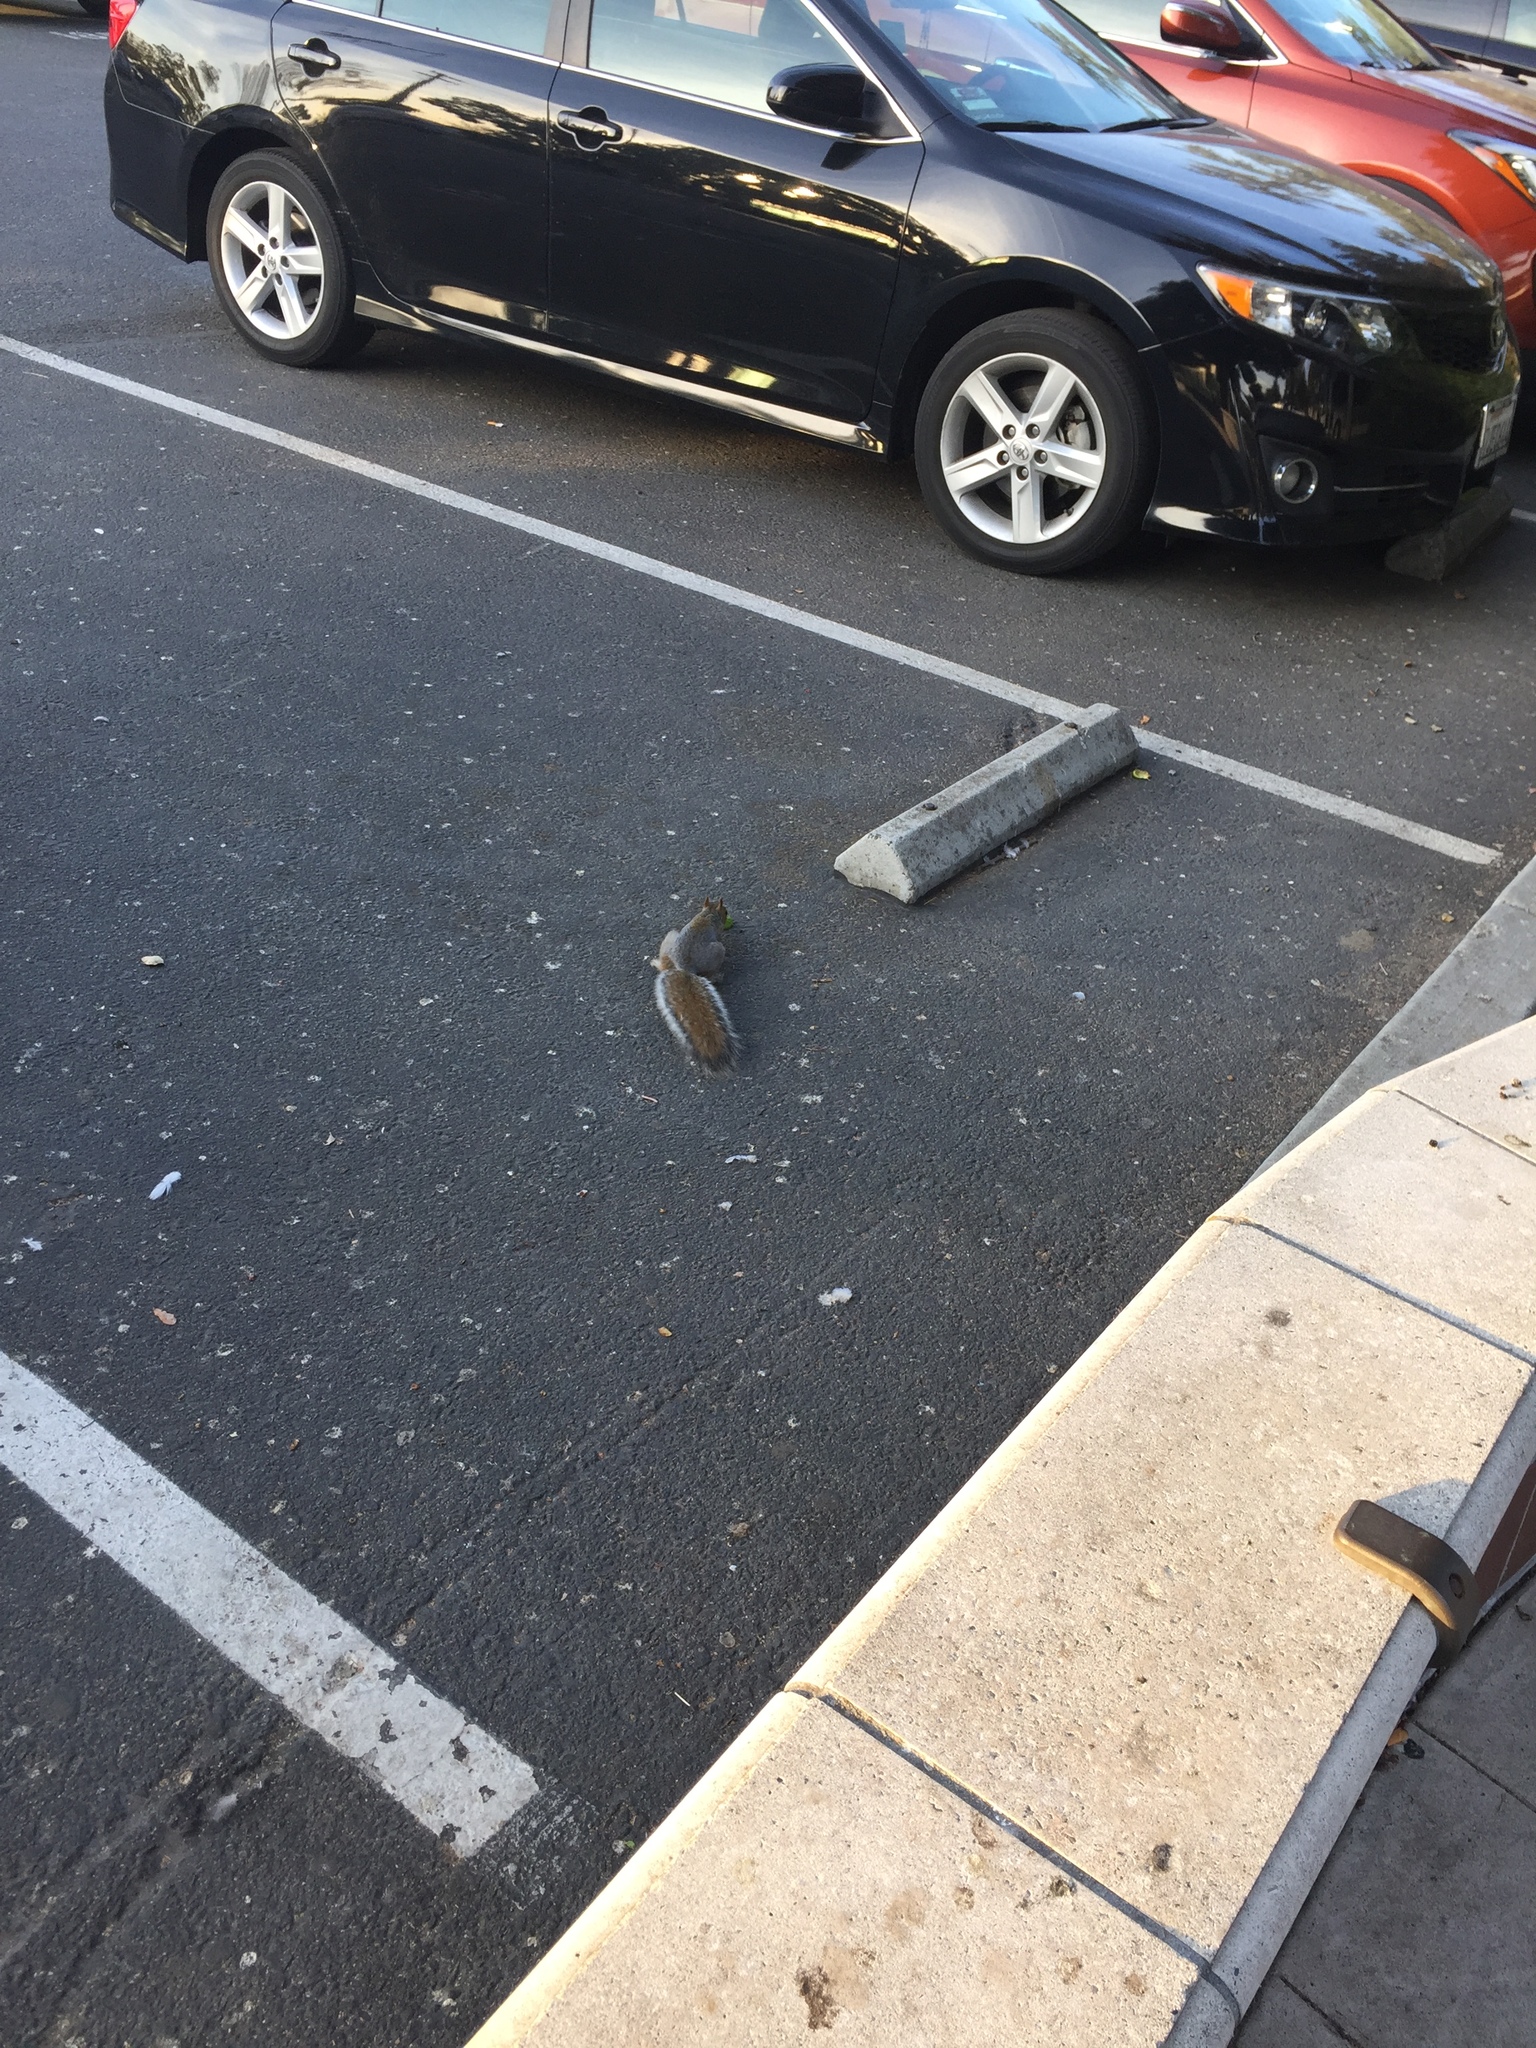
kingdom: Animalia
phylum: Chordata
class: Mammalia
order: Rodentia
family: Sciuridae
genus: Sciurus
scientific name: Sciurus carolinensis
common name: Eastern gray squirrel
